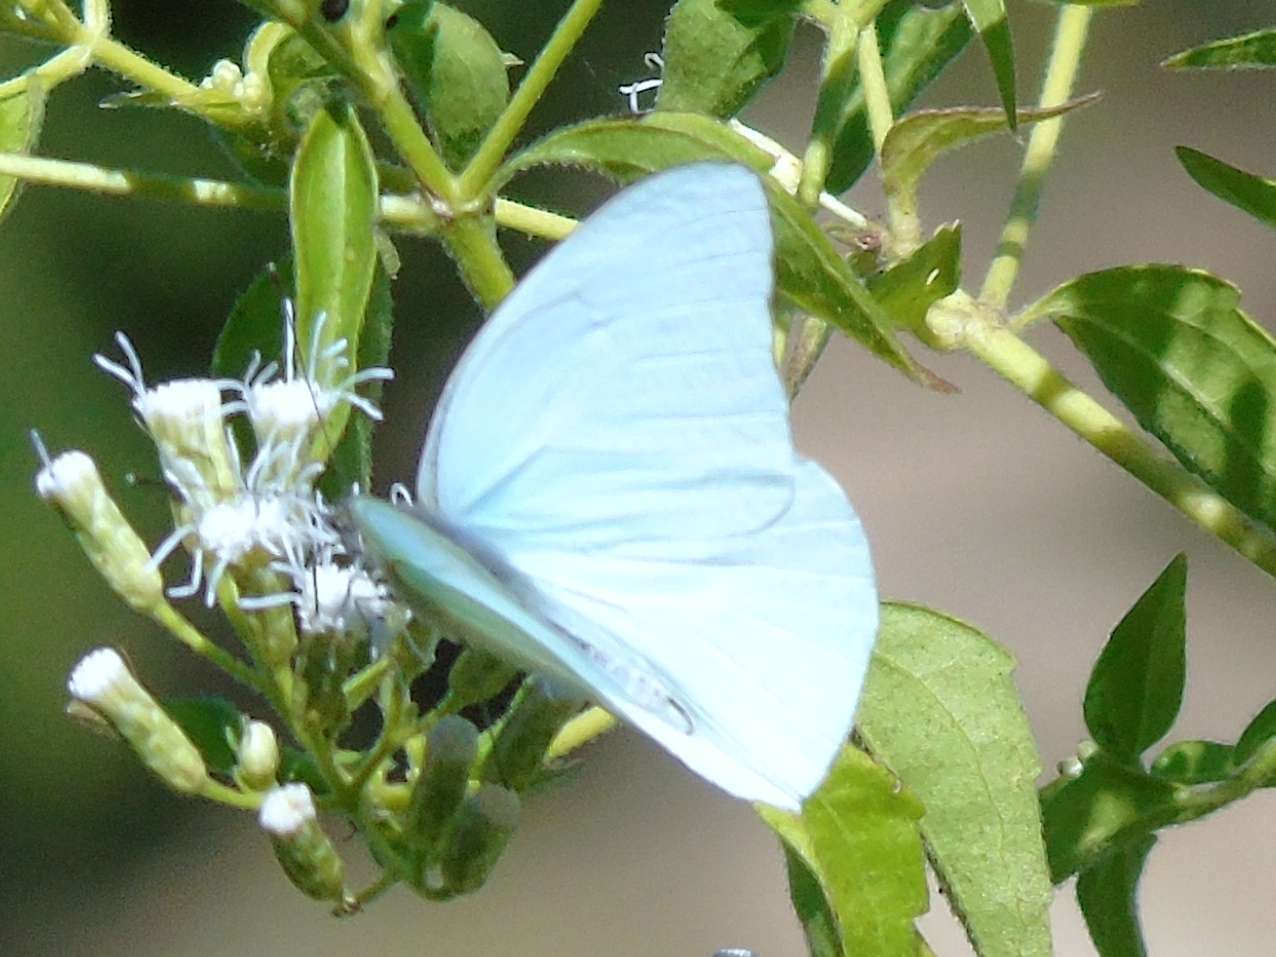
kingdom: Animalia
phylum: Arthropoda
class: Insecta
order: Lepidoptera
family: Pieridae
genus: Glutophrissa
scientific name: Glutophrissa drusilla
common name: Florida white
